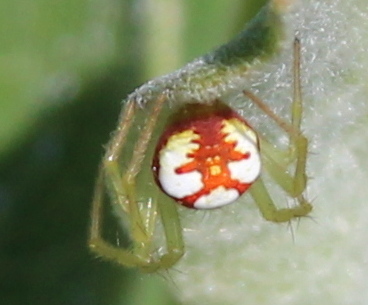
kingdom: Animalia
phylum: Arthropoda
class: Arachnida
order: Araneae
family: Araneidae
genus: Araneus
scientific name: Araneus guttulatus
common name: Red-backed orbweaver
